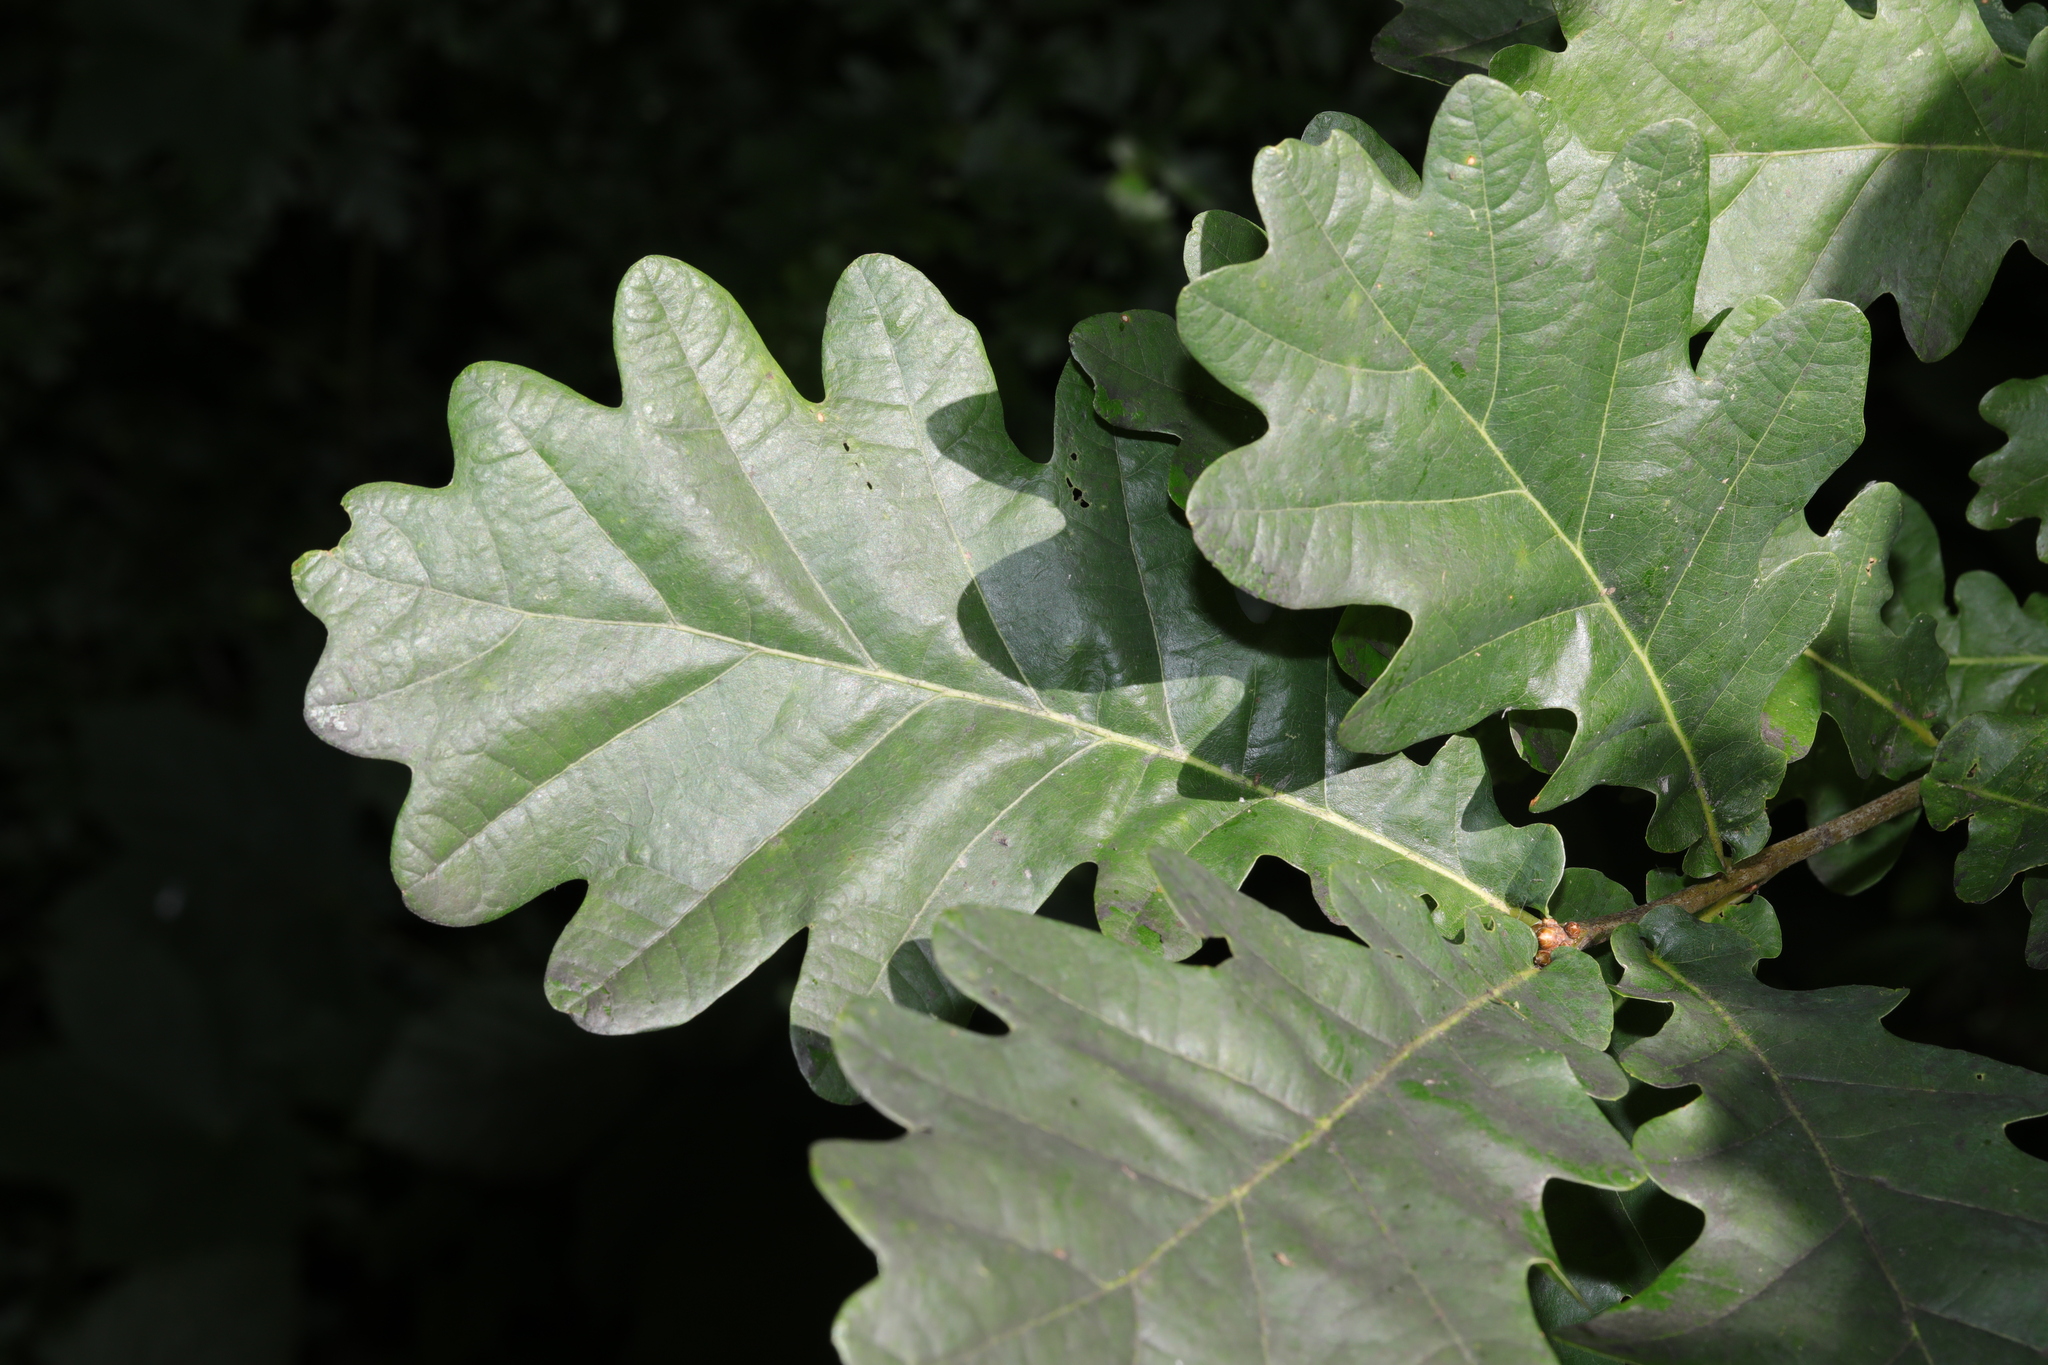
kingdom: Plantae
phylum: Tracheophyta
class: Magnoliopsida
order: Fagales
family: Fagaceae
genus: Quercus
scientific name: Quercus robur
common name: Pedunculate oak
